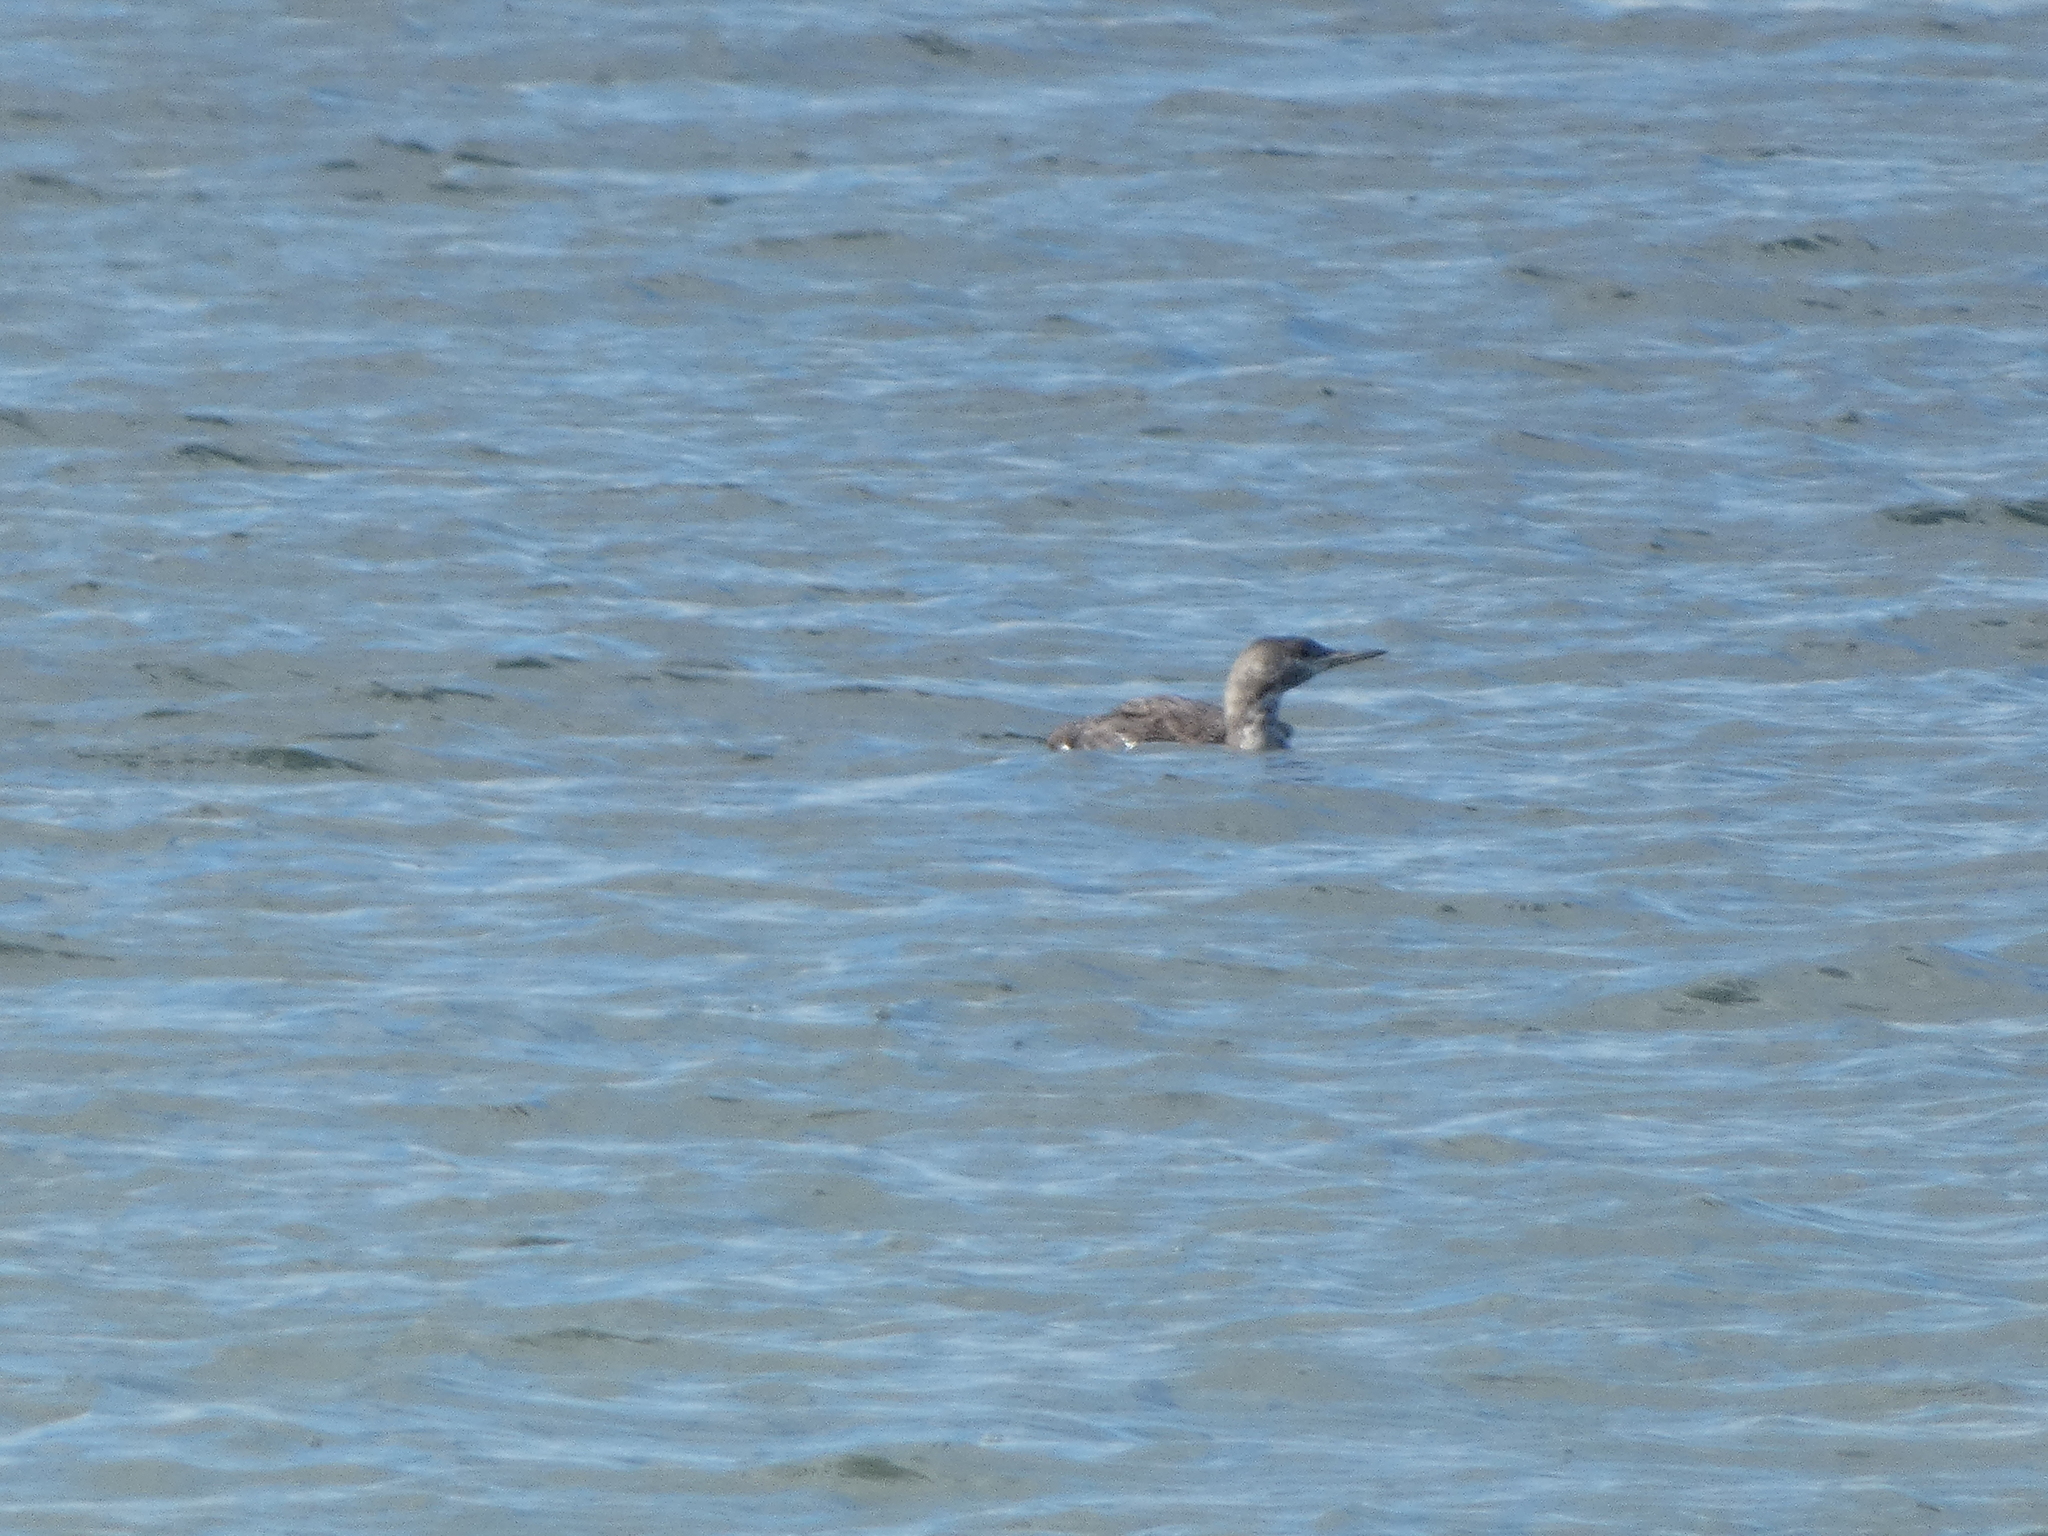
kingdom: Animalia
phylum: Chordata
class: Aves
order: Gaviiformes
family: Gaviidae
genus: Gavia
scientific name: Gavia stellata
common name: Red-throated loon
